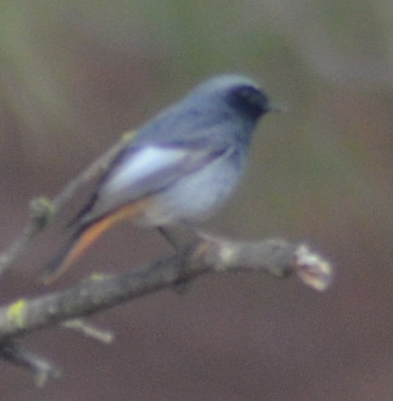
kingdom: Animalia
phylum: Chordata
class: Aves
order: Passeriformes
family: Muscicapidae
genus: Phoenicurus
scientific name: Phoenicurus ochruros
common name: Black redstart
